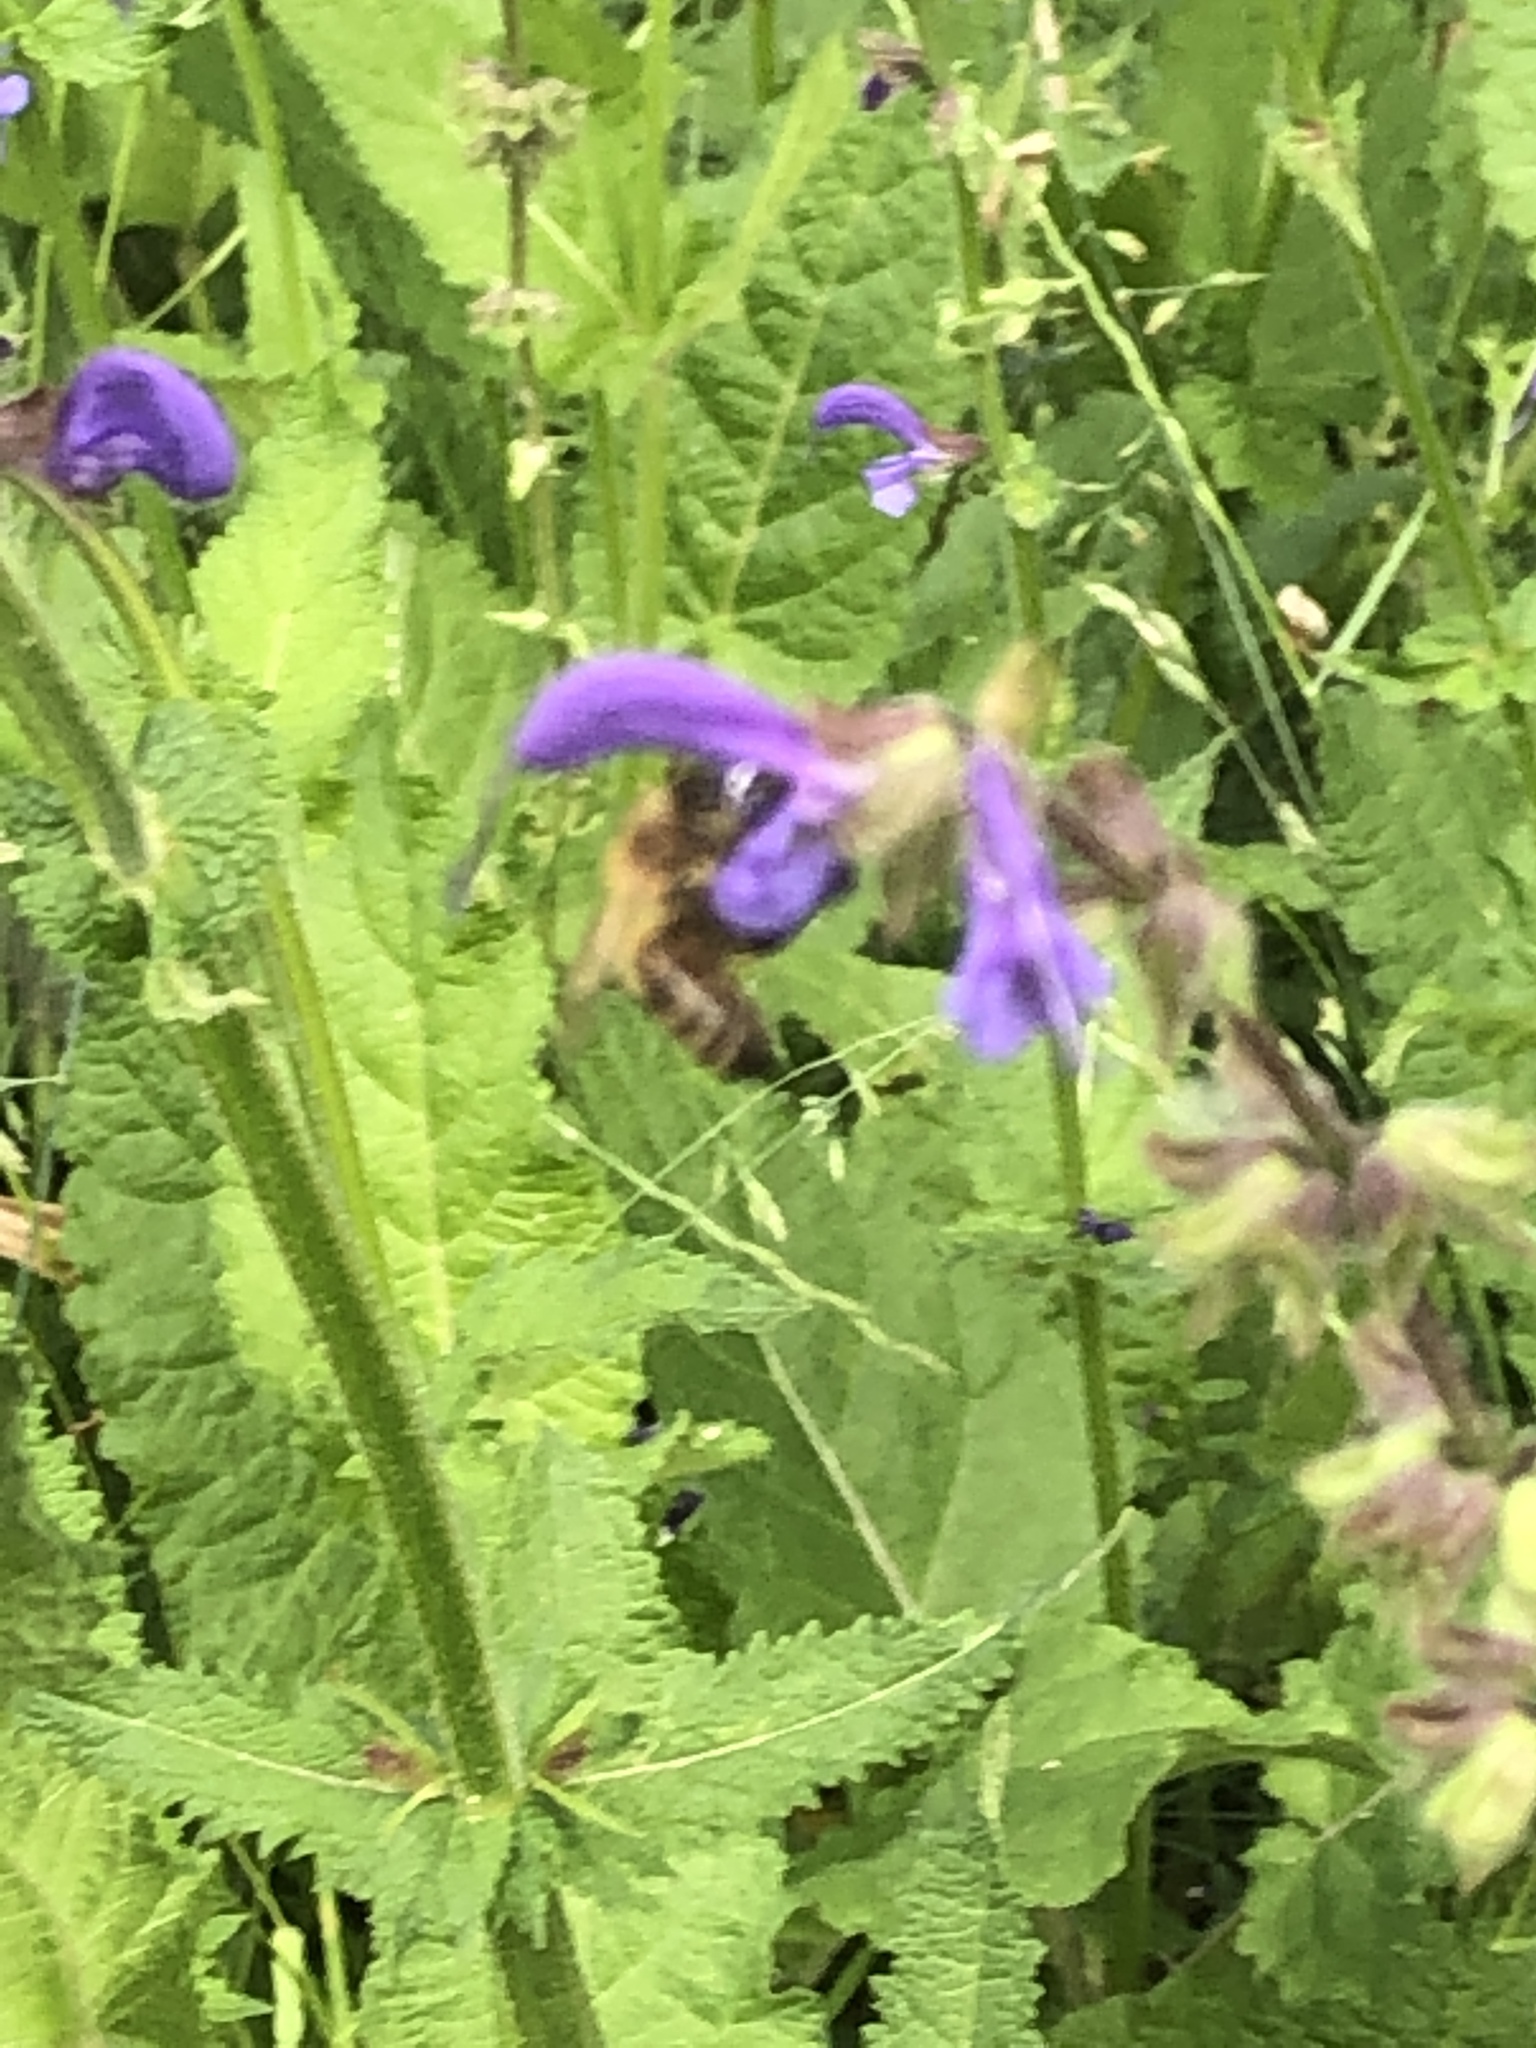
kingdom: Animalia
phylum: Arthropoda
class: Insecta
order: Hymenoptera
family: Apidae
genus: Apis
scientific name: Apis mellifera
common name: Honey bee
